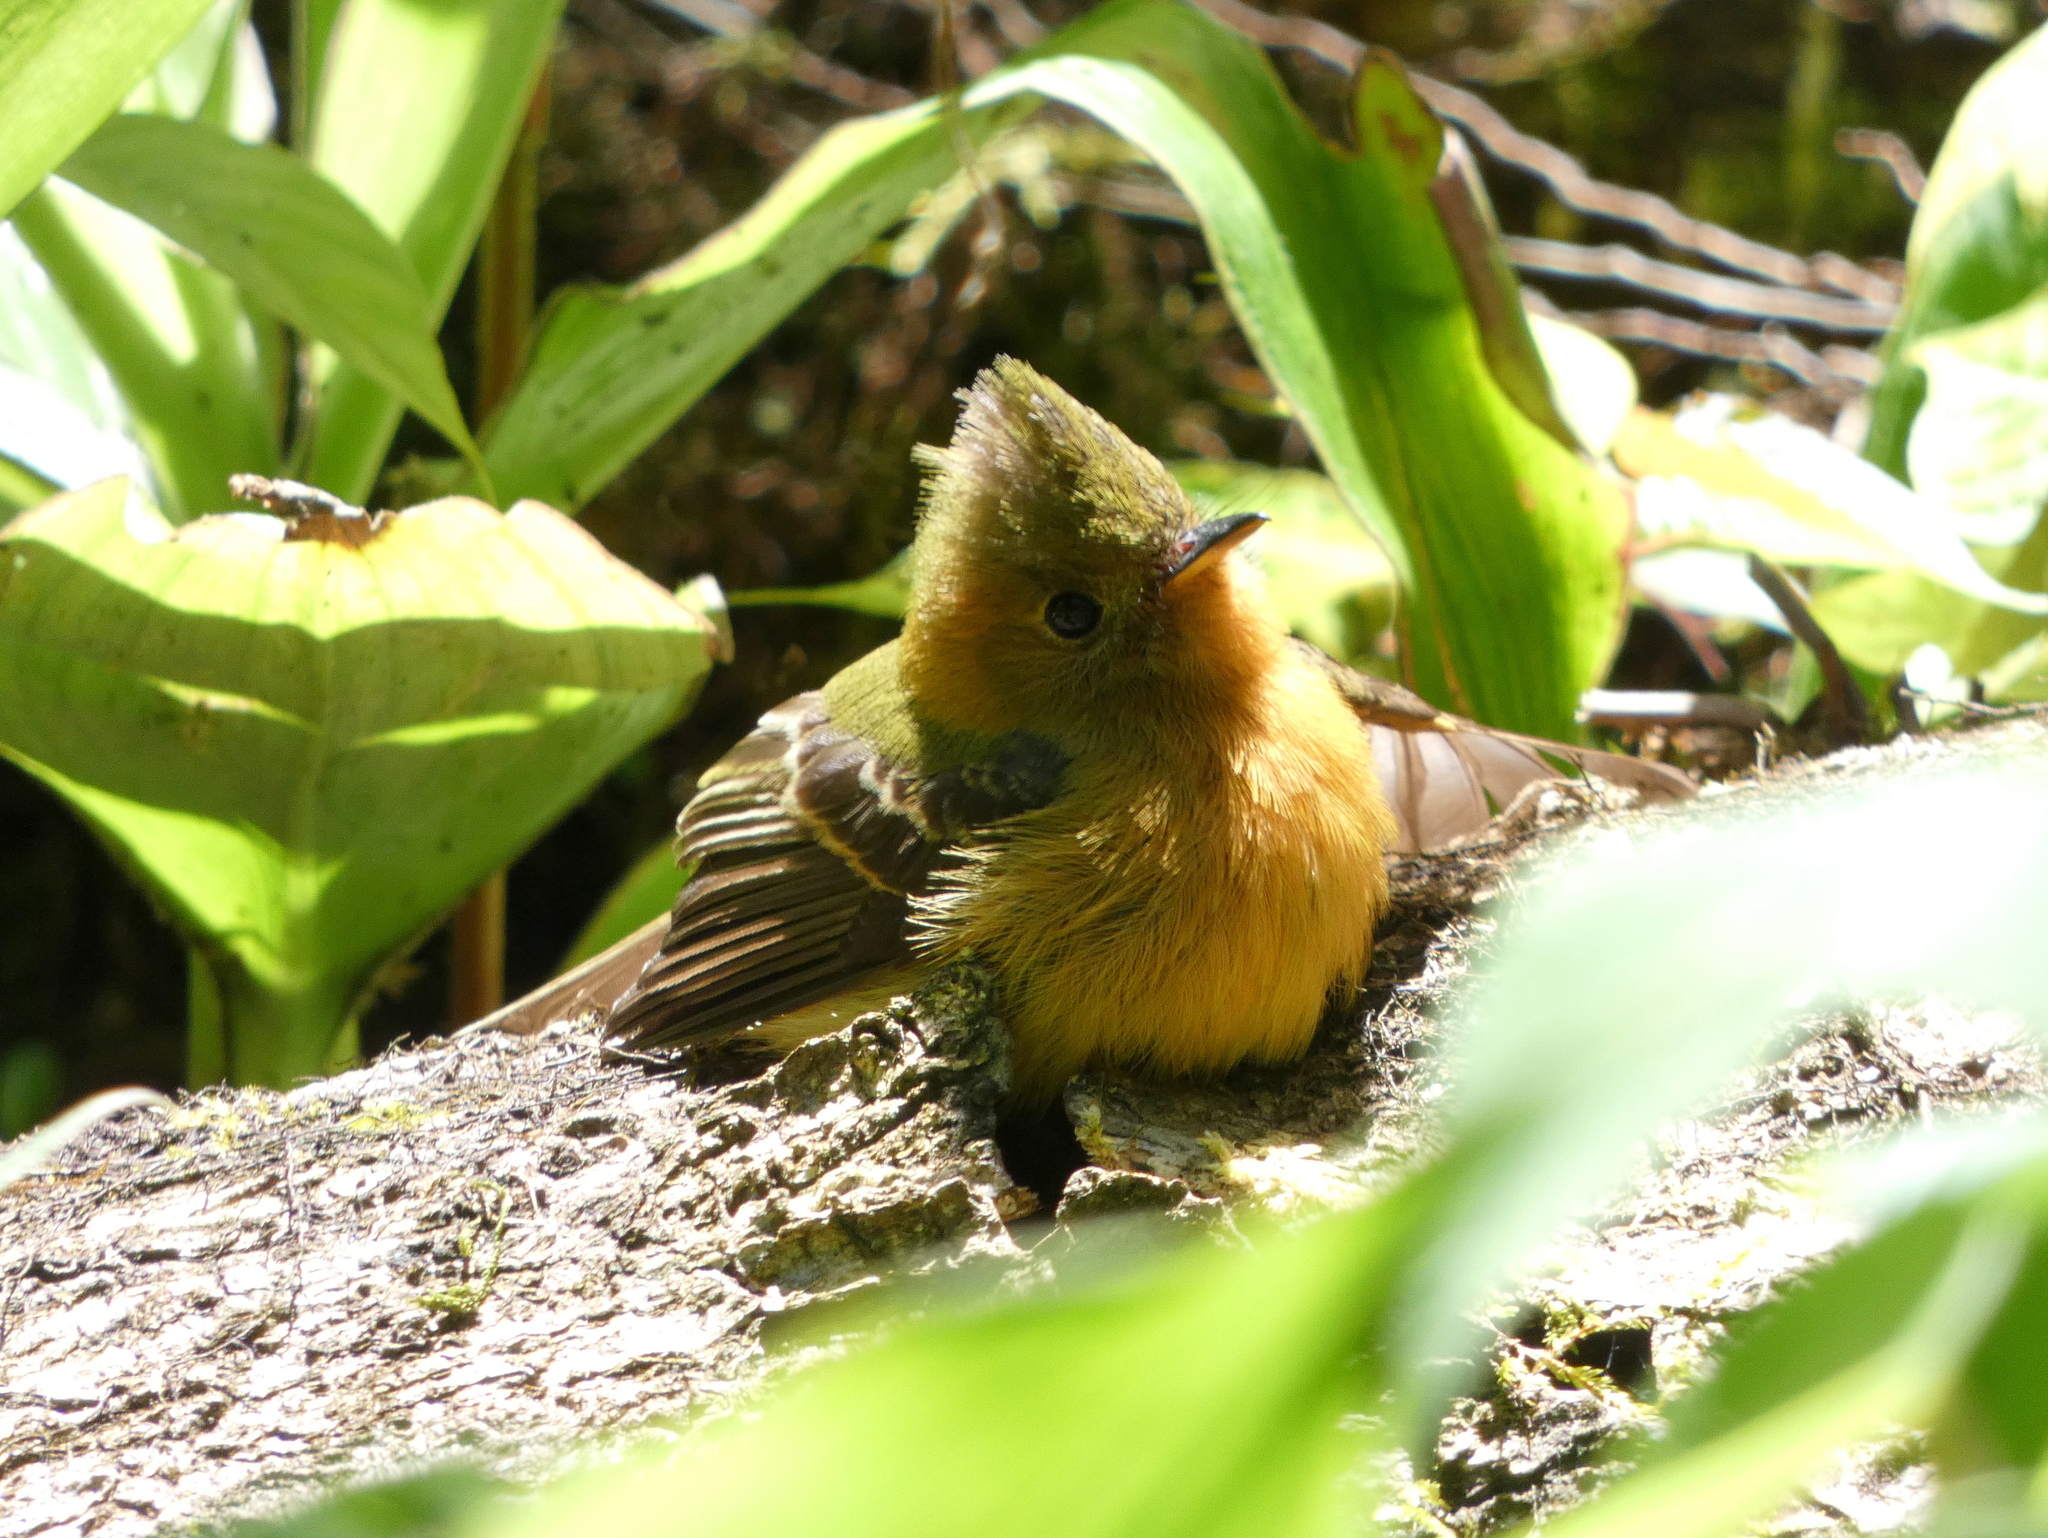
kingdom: Animalia
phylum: Chordata
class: Aves
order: Passeriformes
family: Tyrannidae
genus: Mitrephanes
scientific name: Mitrephanes phaeocercus
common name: Northern tufted flycatcher
